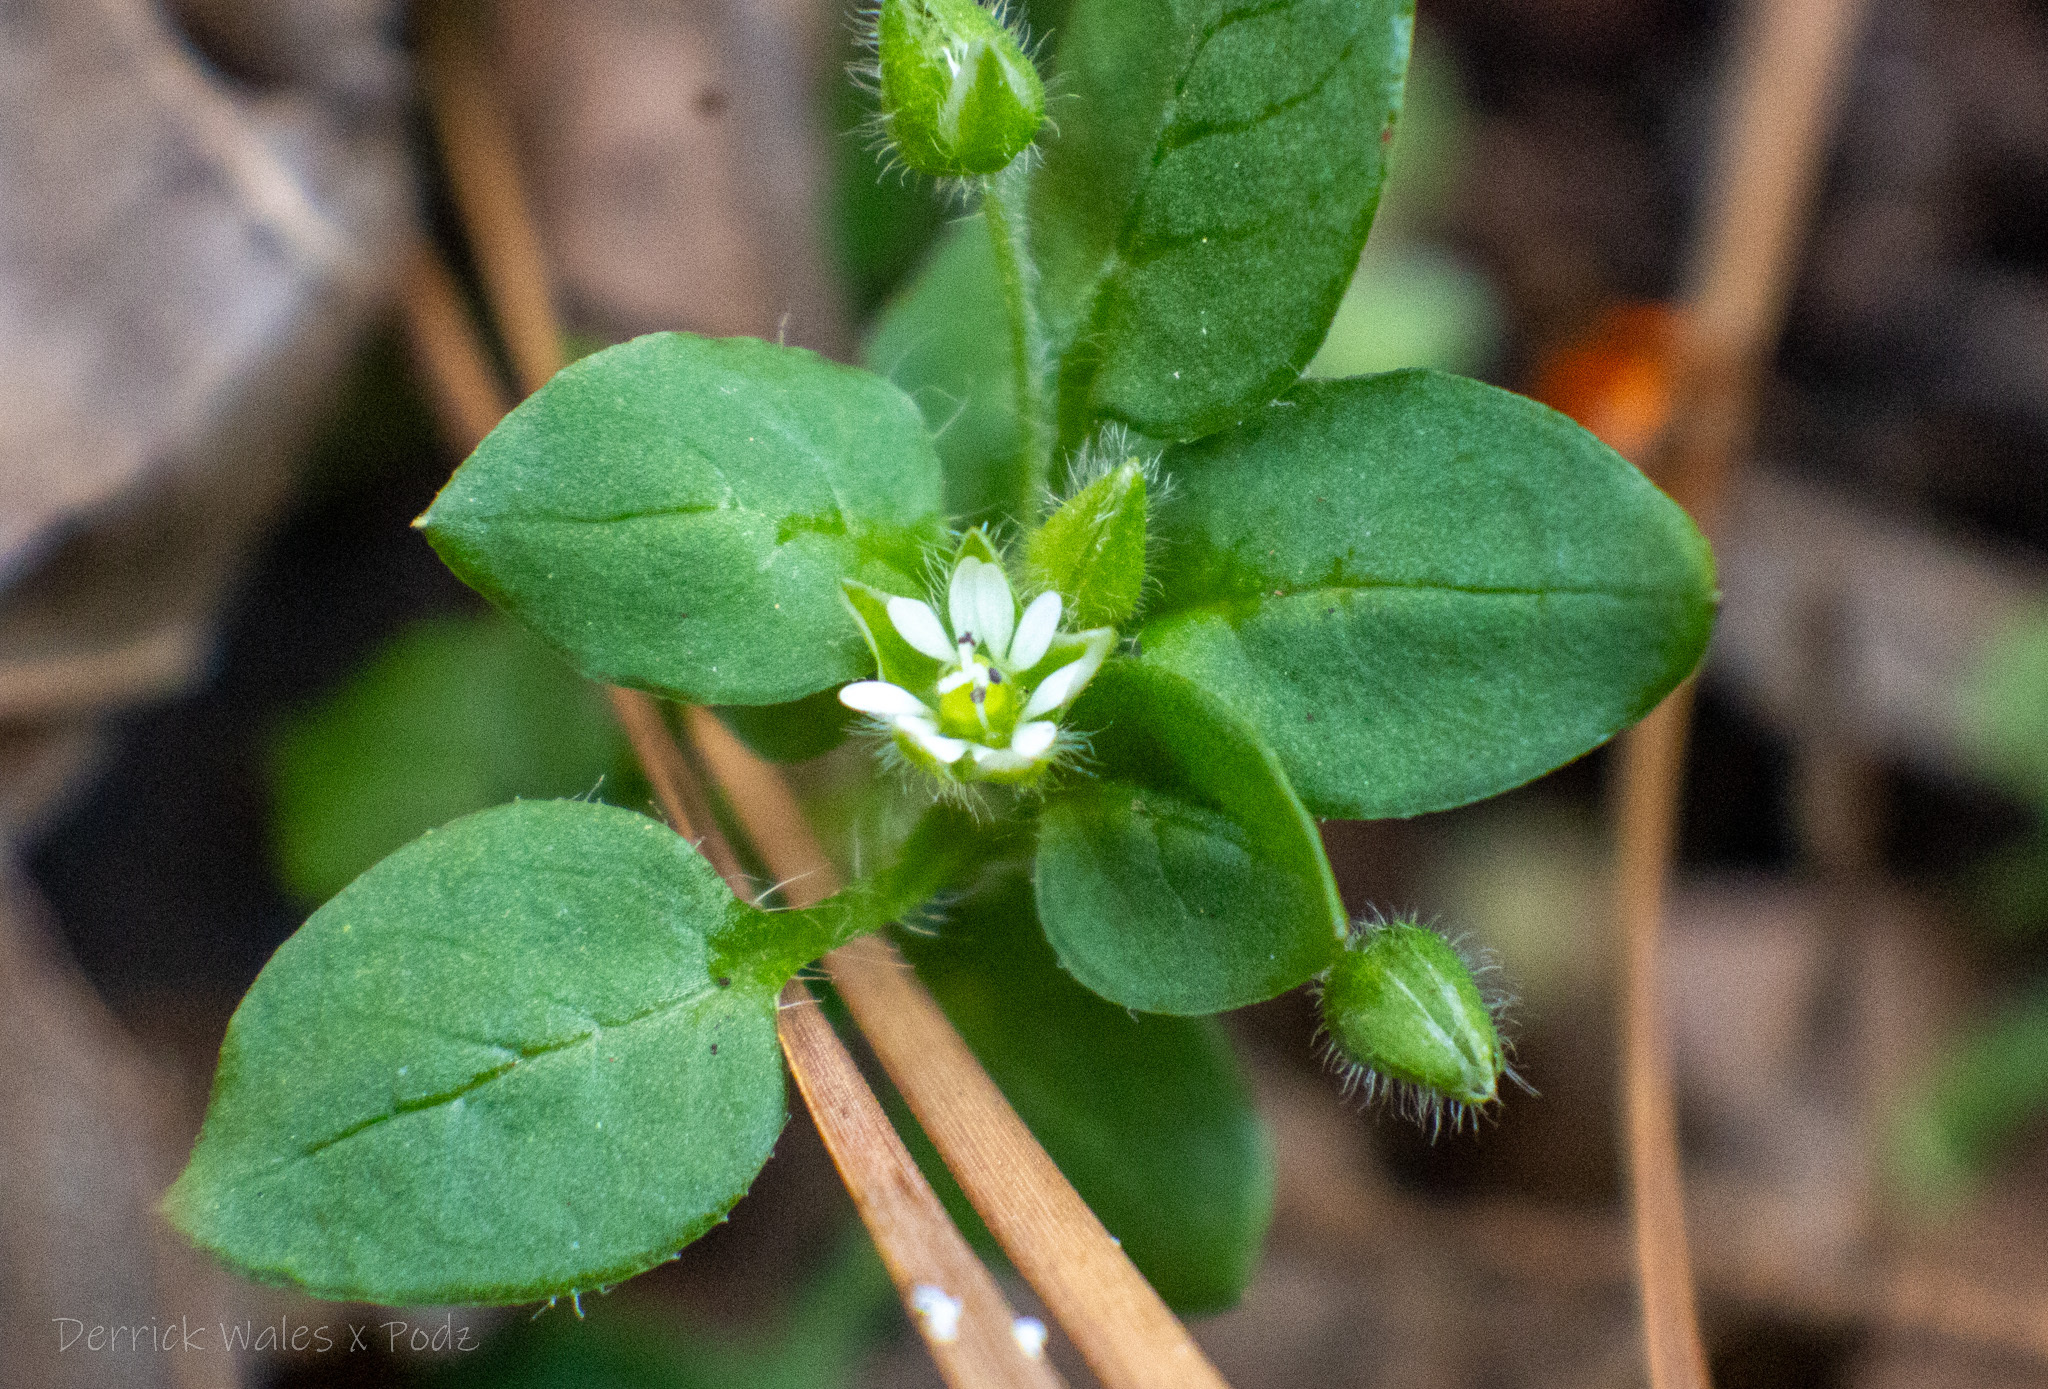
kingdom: Plantae
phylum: Tracheophyta
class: Magnoliopsida
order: Caryophyllales
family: Caryophyllaceae
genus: Stellaria
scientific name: Stellaria media
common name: Common chickweed
